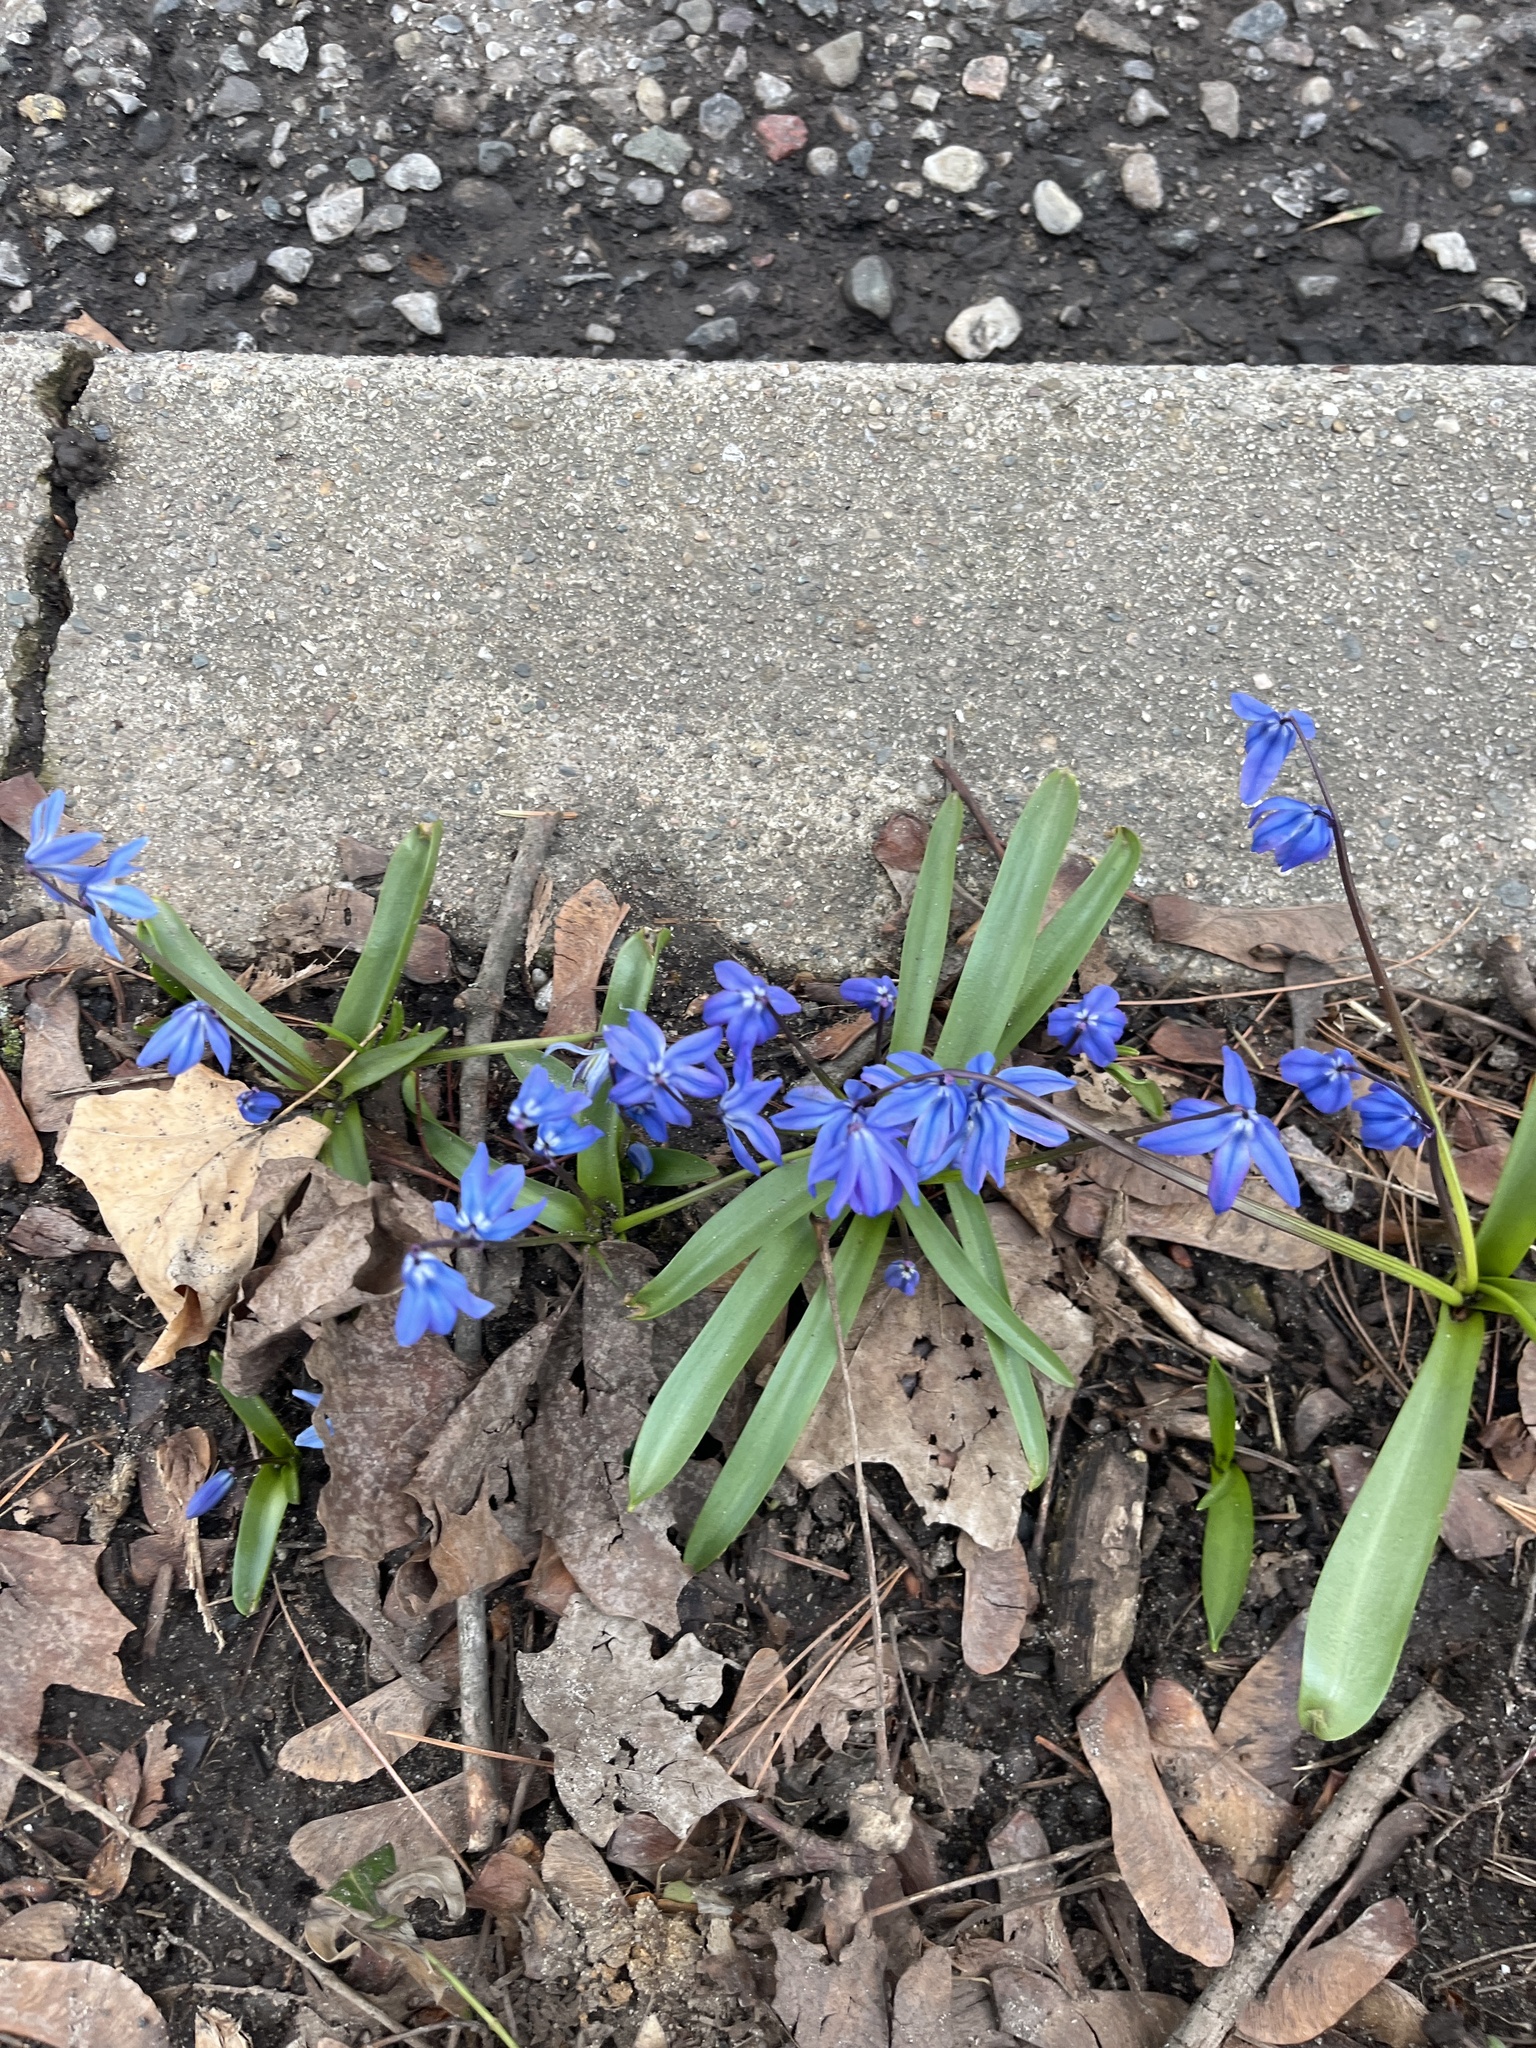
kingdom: Plantae
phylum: Tracheophyta
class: Liliopsida
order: Asparagales
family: Asparagaceae
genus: Scilla
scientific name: Scilla siberica
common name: Siberian squill
